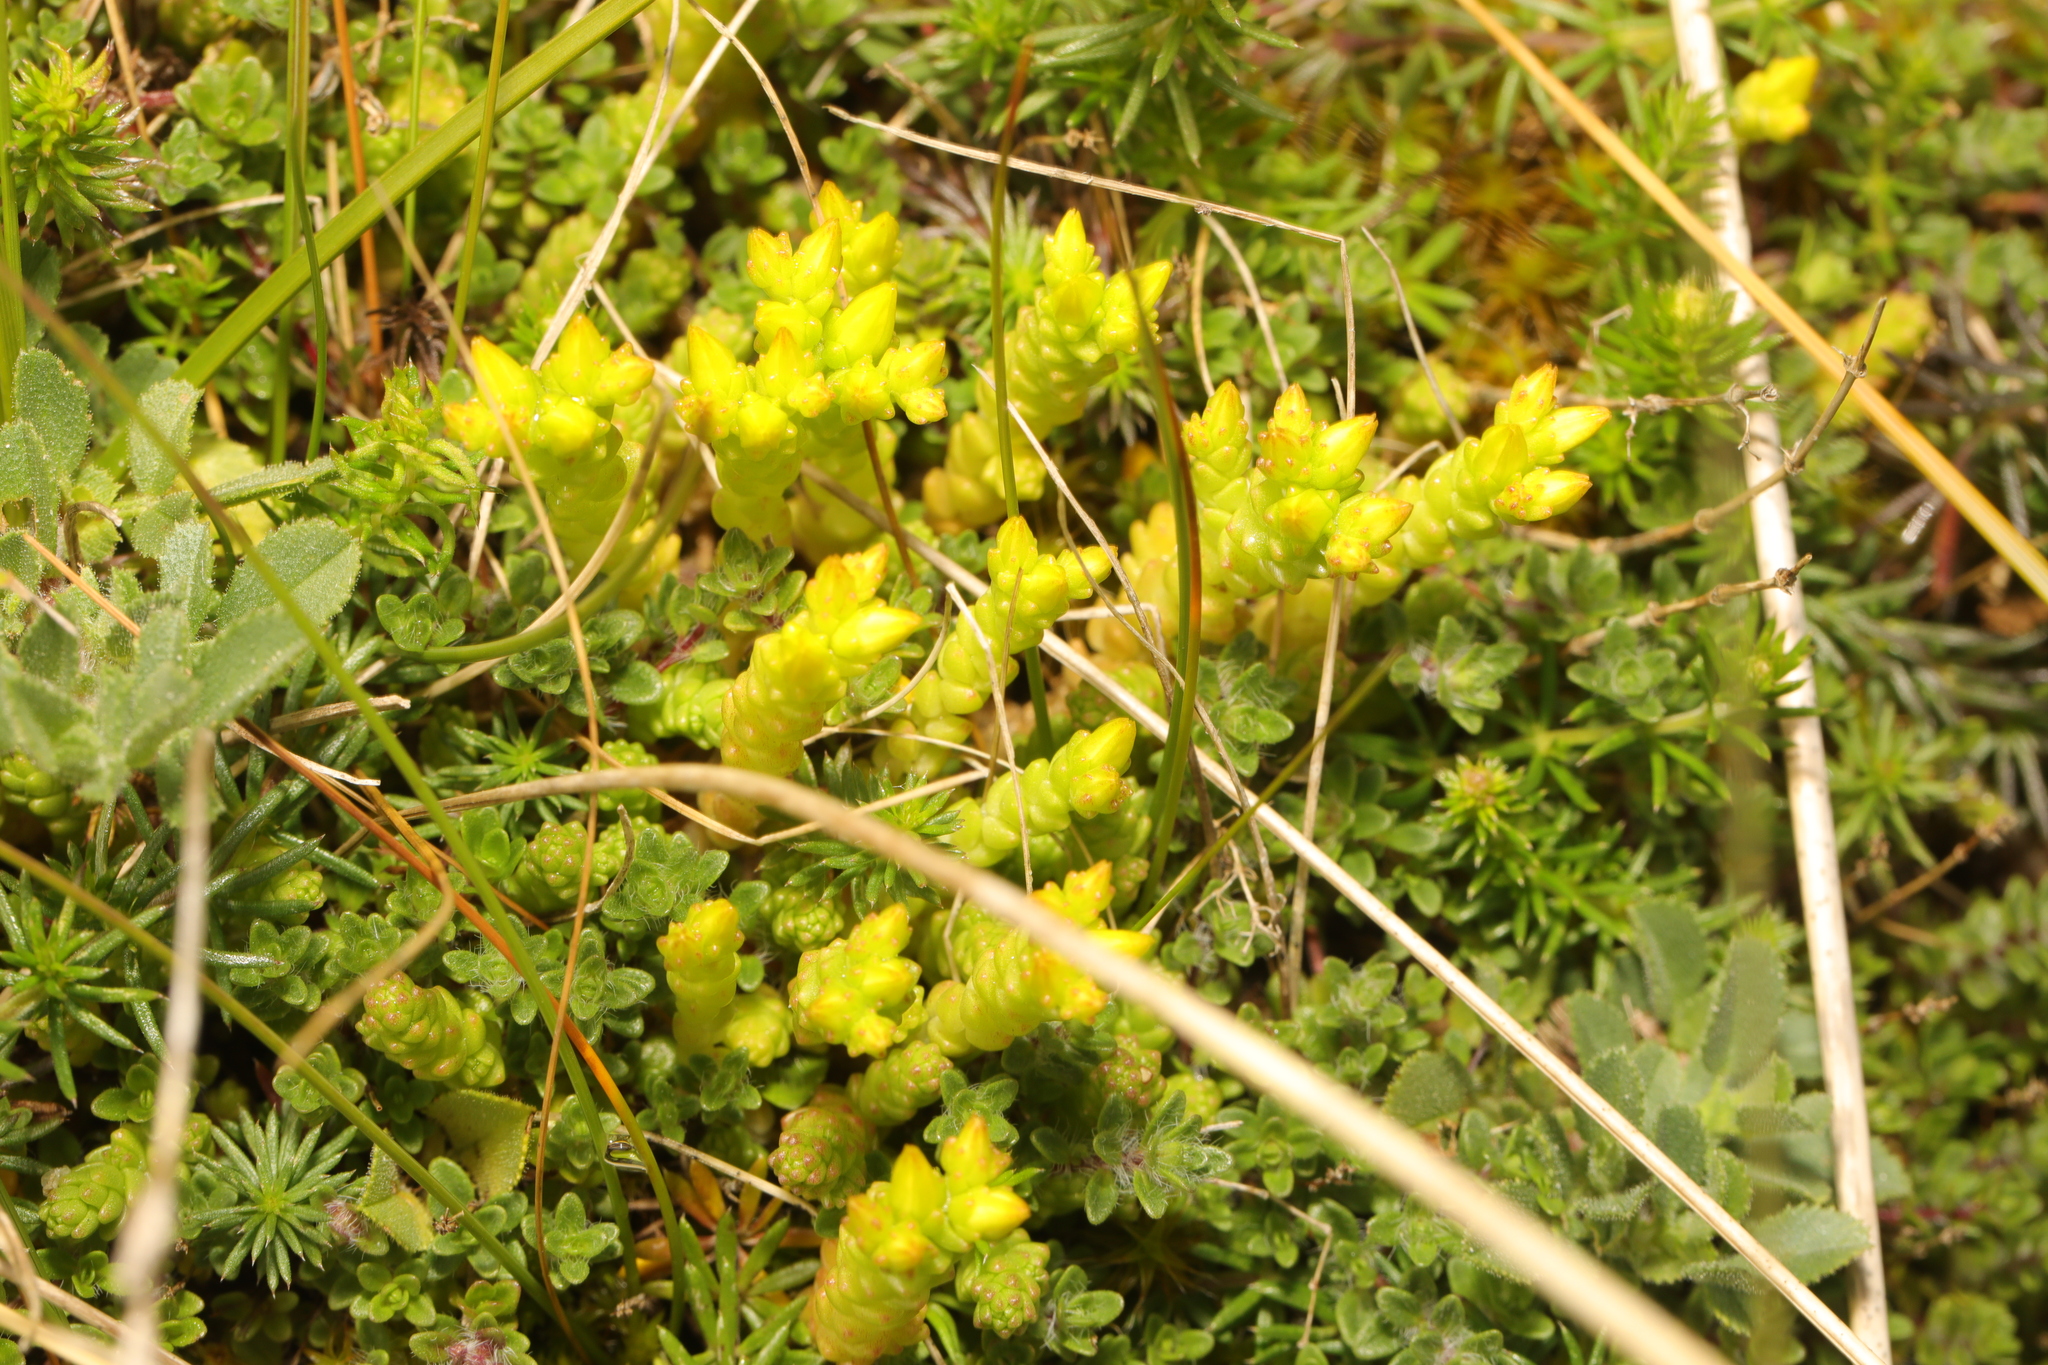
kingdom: Plantae
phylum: Tracheophyta
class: Magnoliopsida
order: Saxifragales
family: Crassulaceae
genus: Sedum
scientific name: Sedum acre
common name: Biting stonecrop
